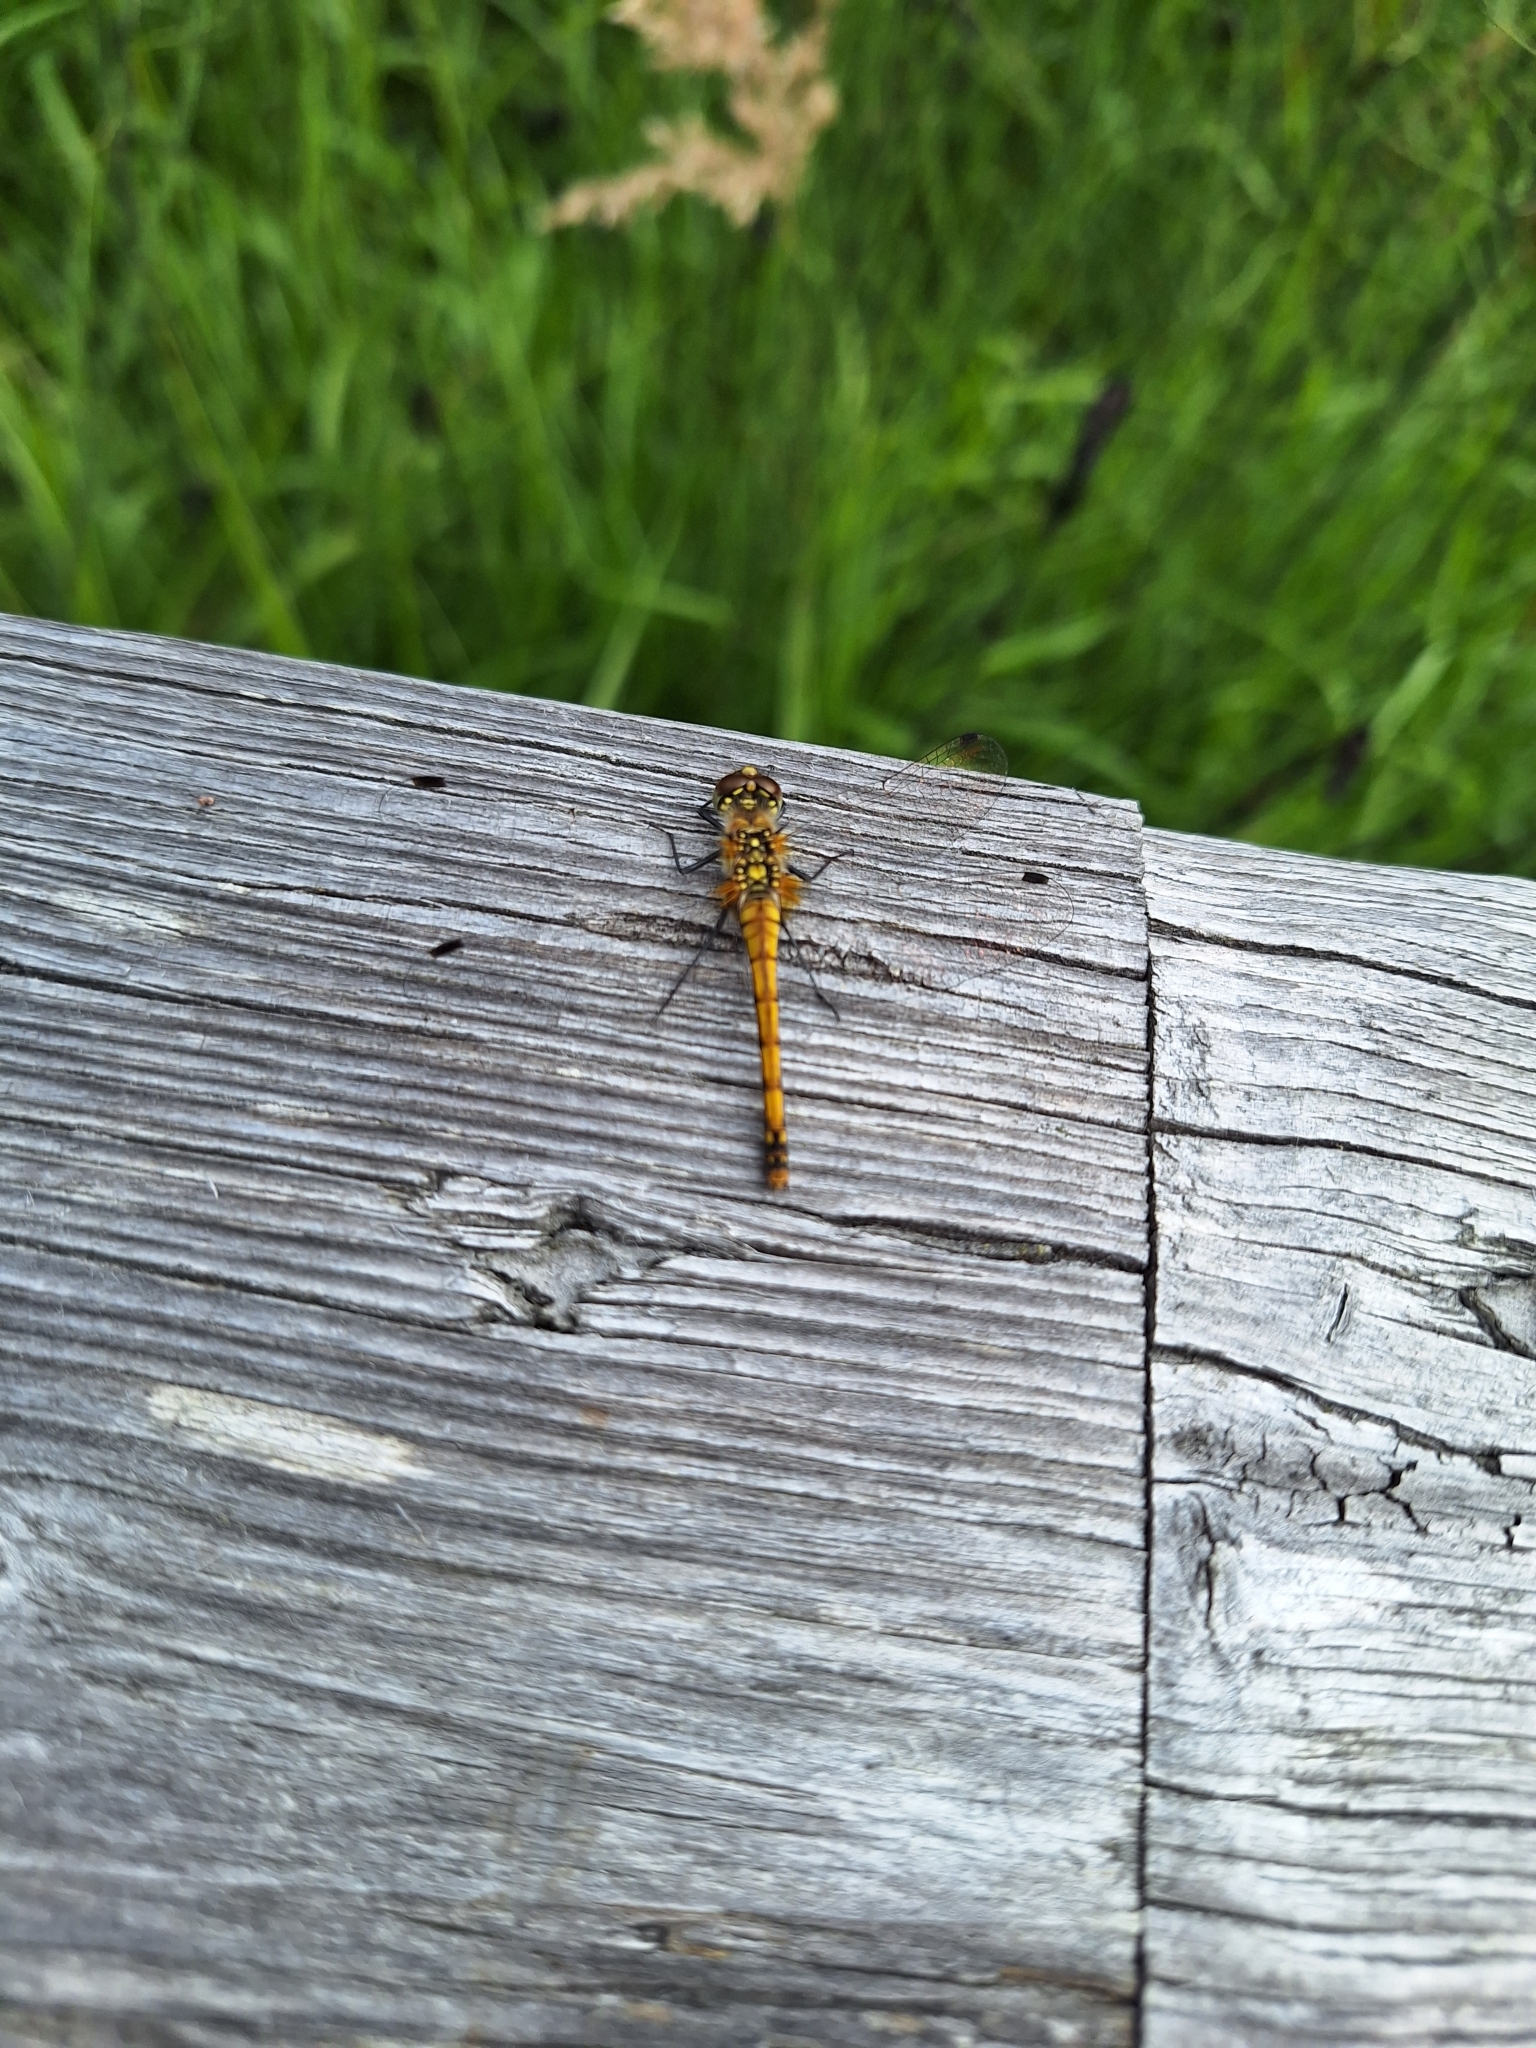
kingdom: Animalia
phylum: Arthropoda
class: Insecta
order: Odonata
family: Libellulidae
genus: Sympetrum
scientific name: Sympetrum danae
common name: Black darter
